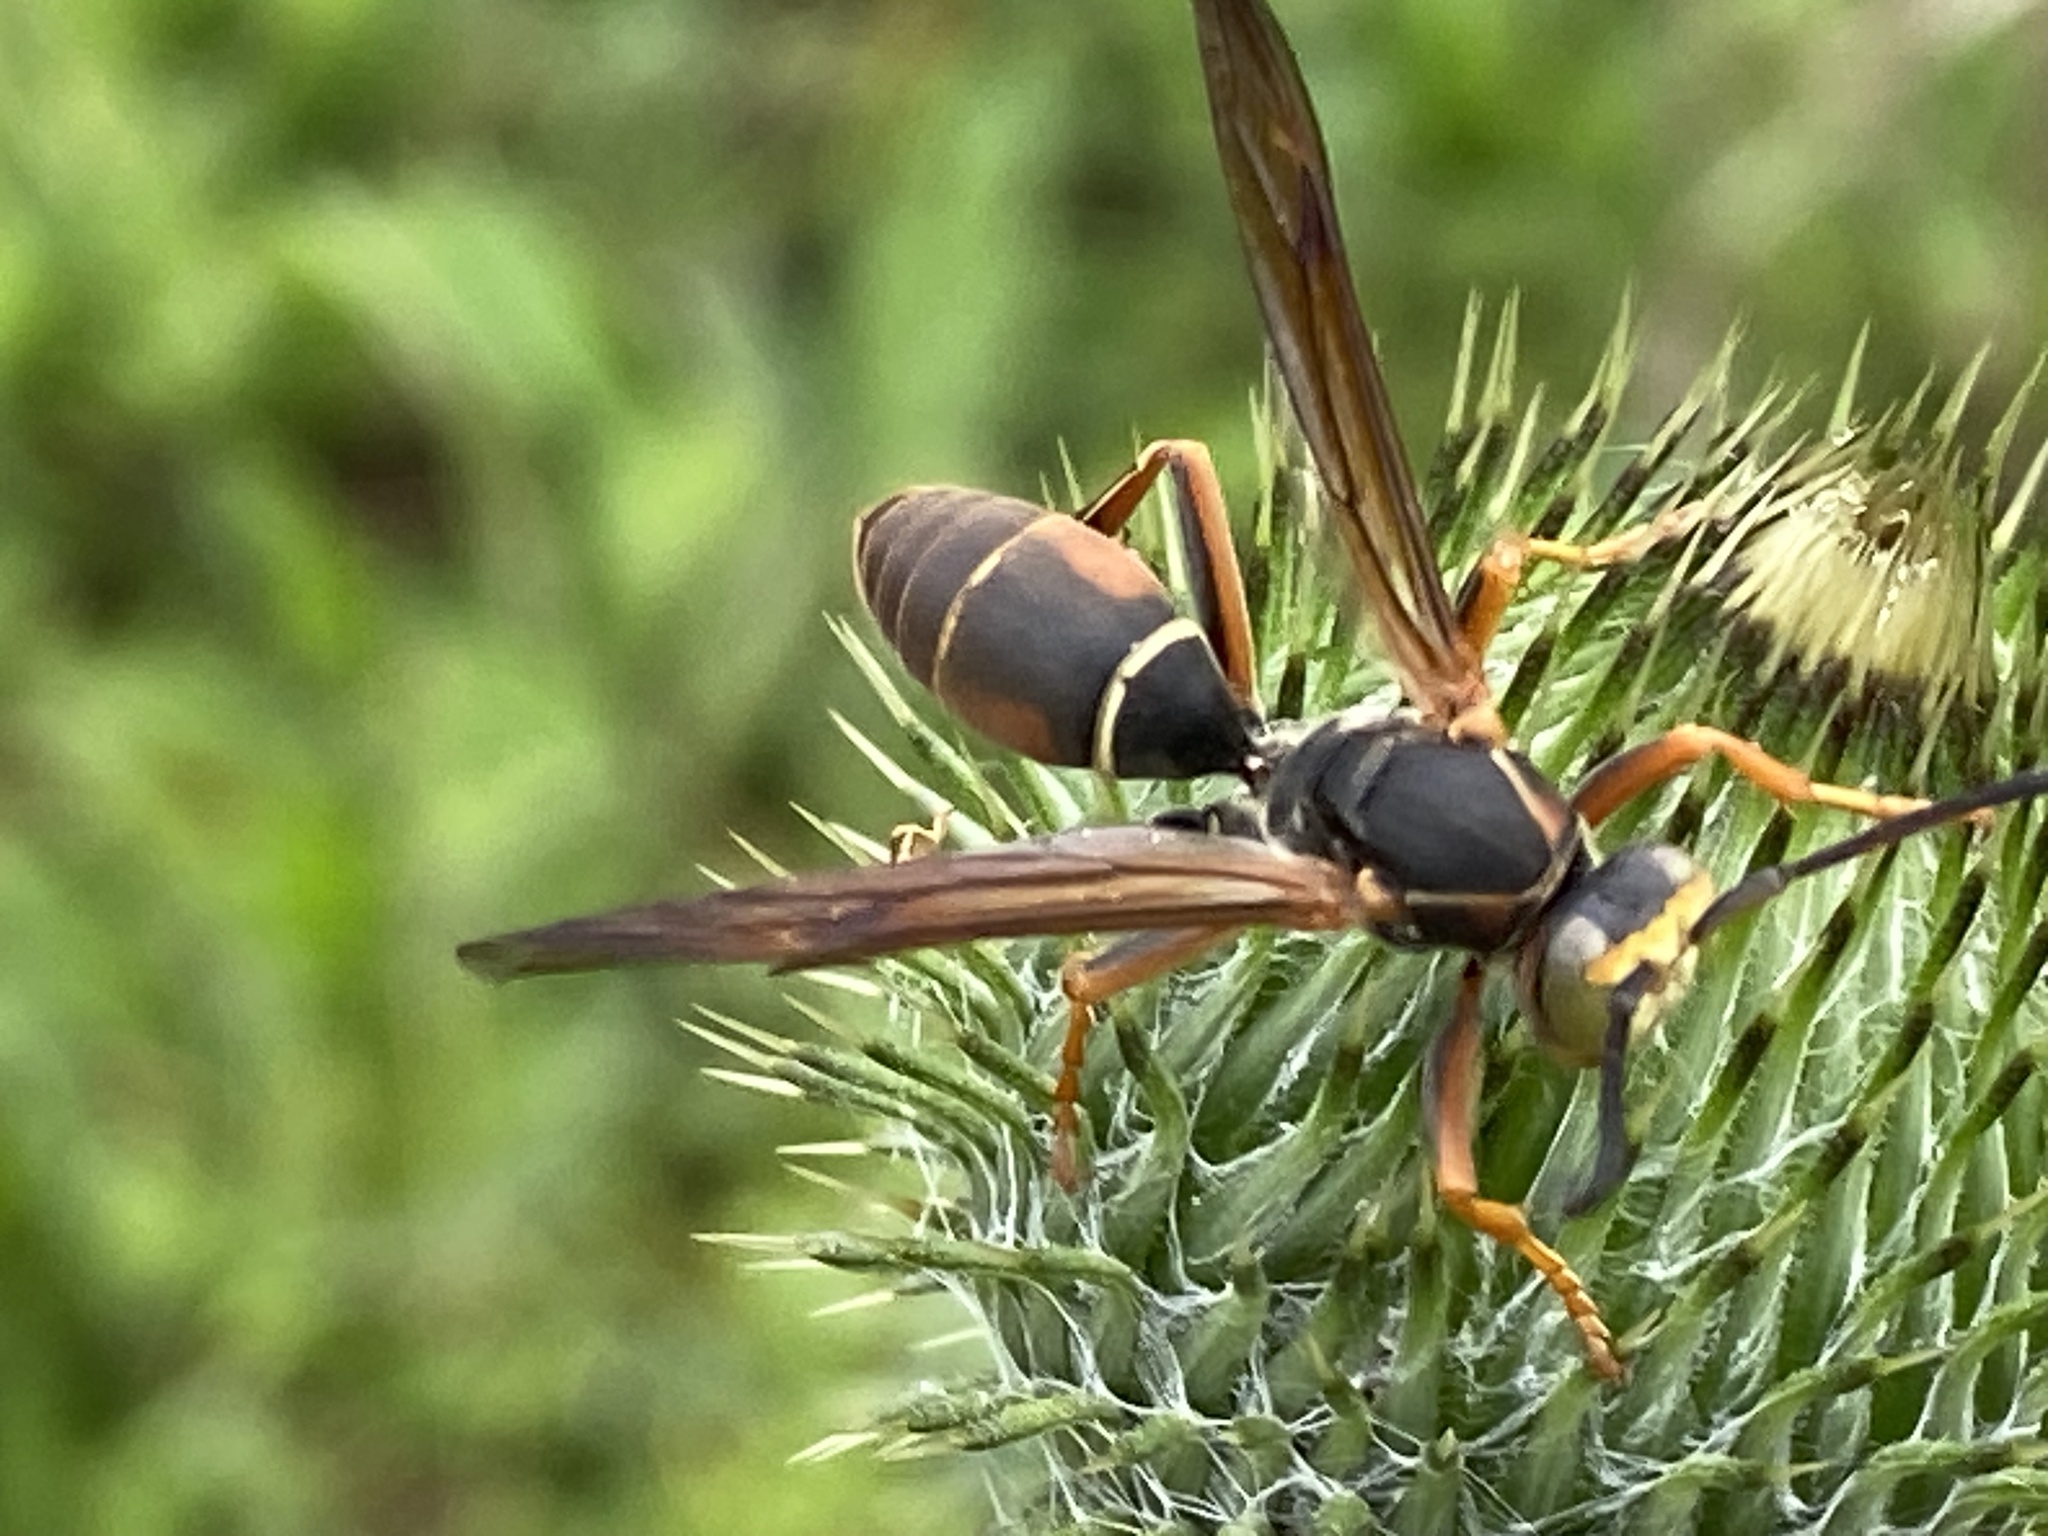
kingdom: Animalia
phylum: Arthropoda
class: Insecta
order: Hymenoptera
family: Eumenidae
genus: Polistes
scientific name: Polistes fuscatus
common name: Dark paper wasp
